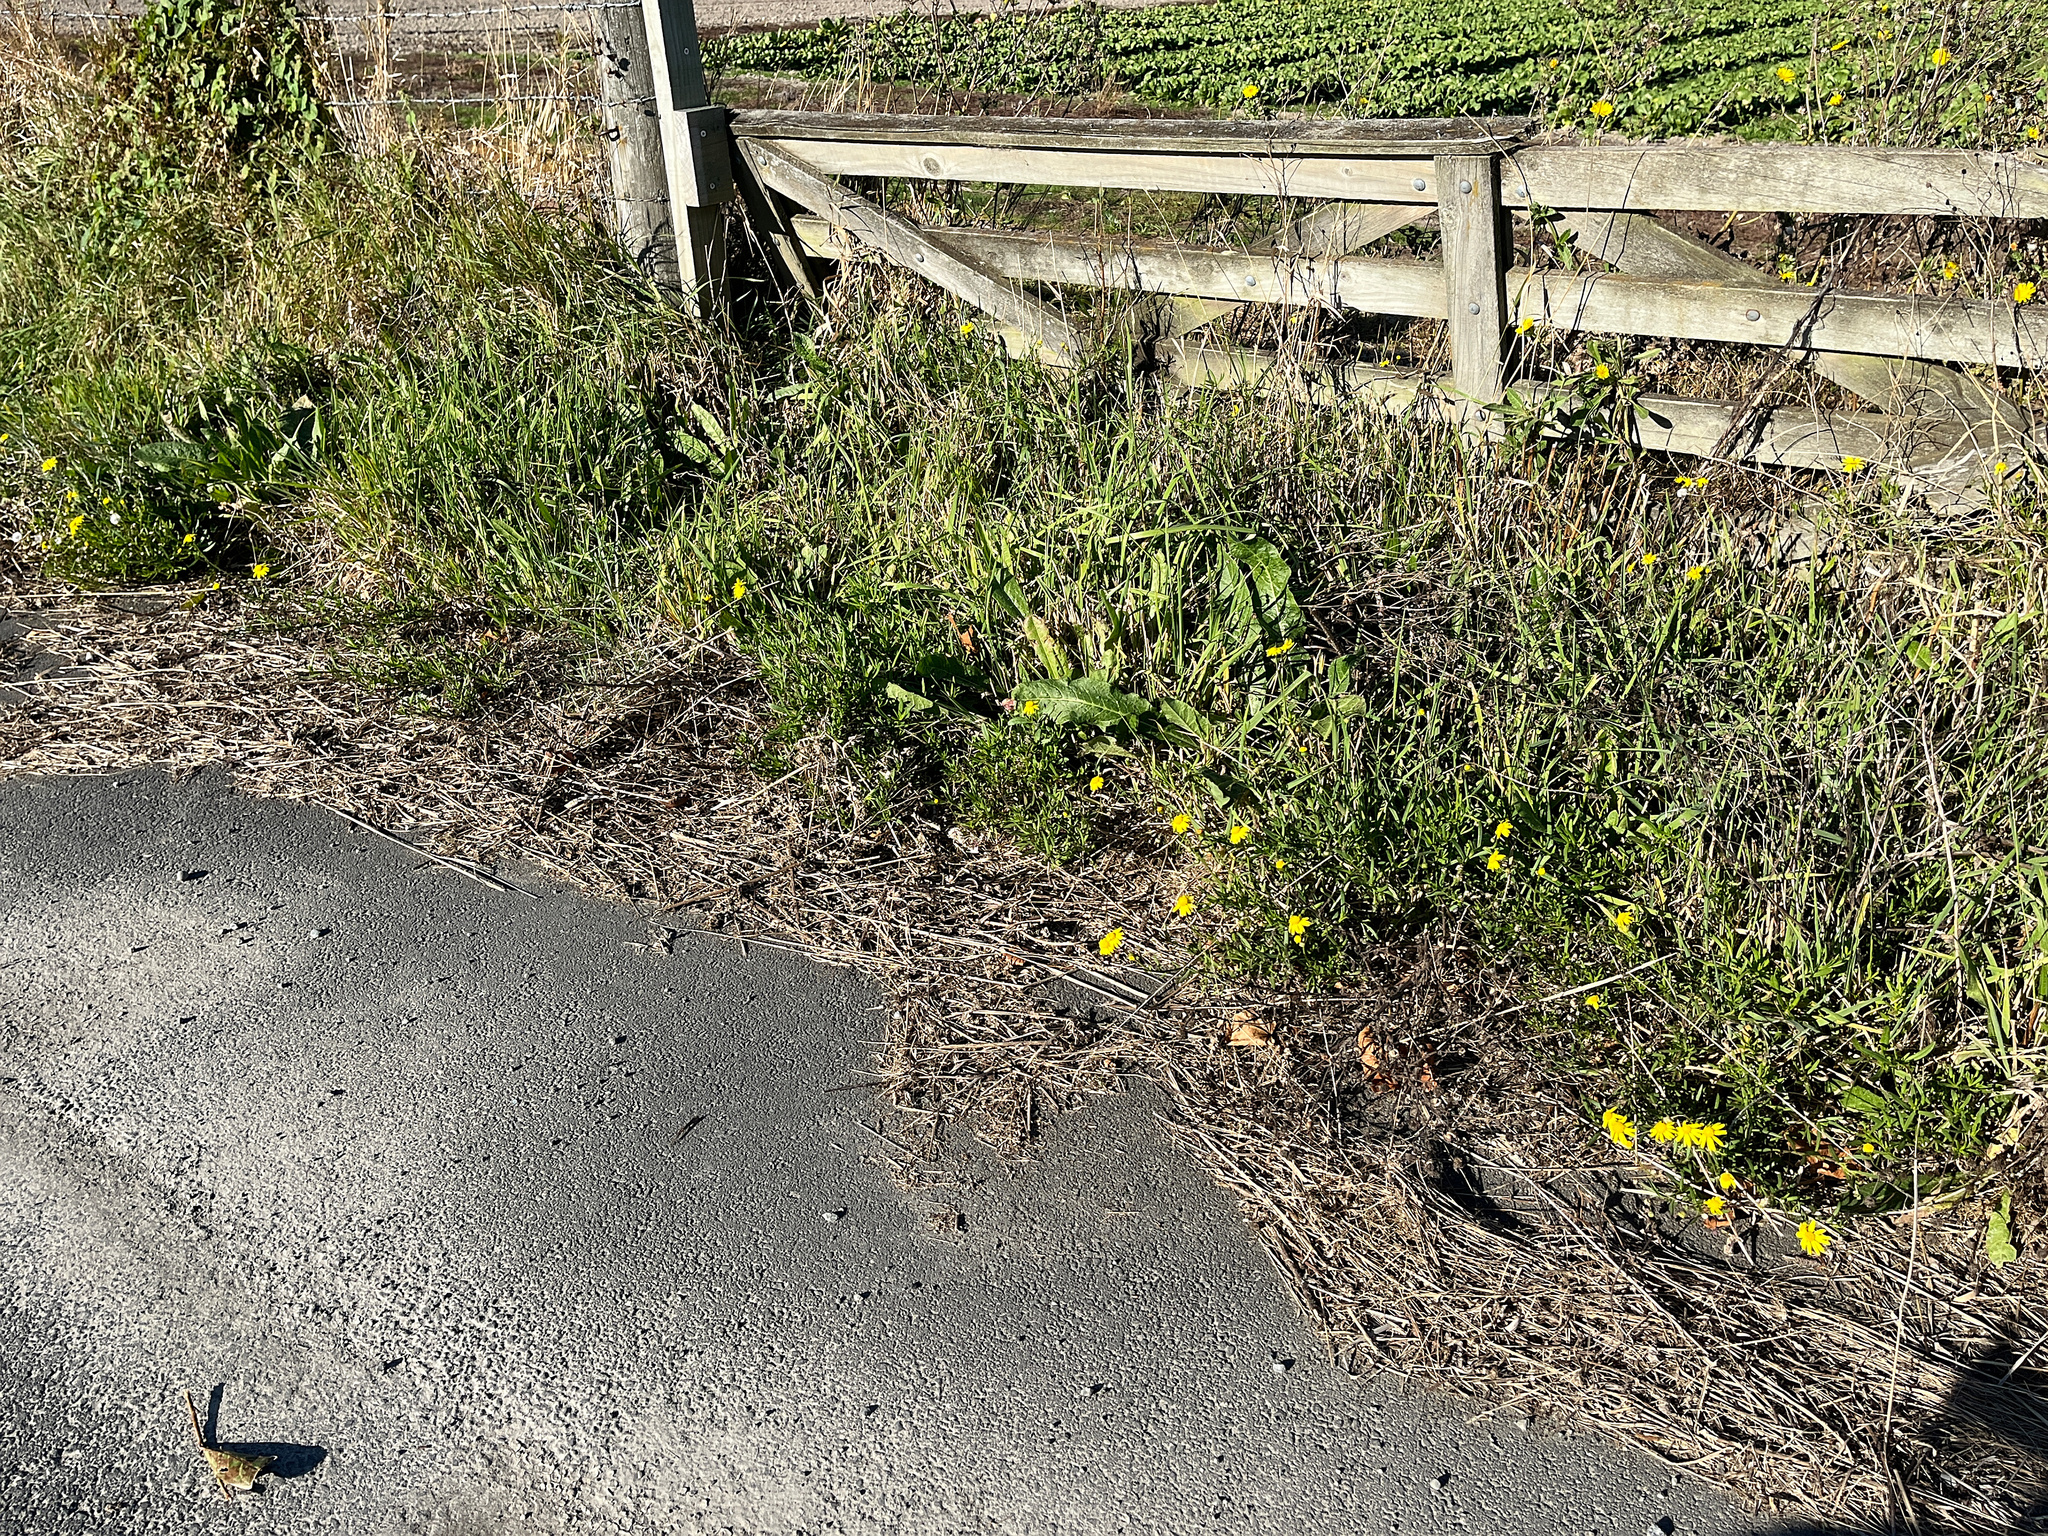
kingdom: Plantae
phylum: Tracheophyta
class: Magnoliopsida
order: Asterales
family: Asteraceae
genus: Senecio
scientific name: Senecio skirrhodon
